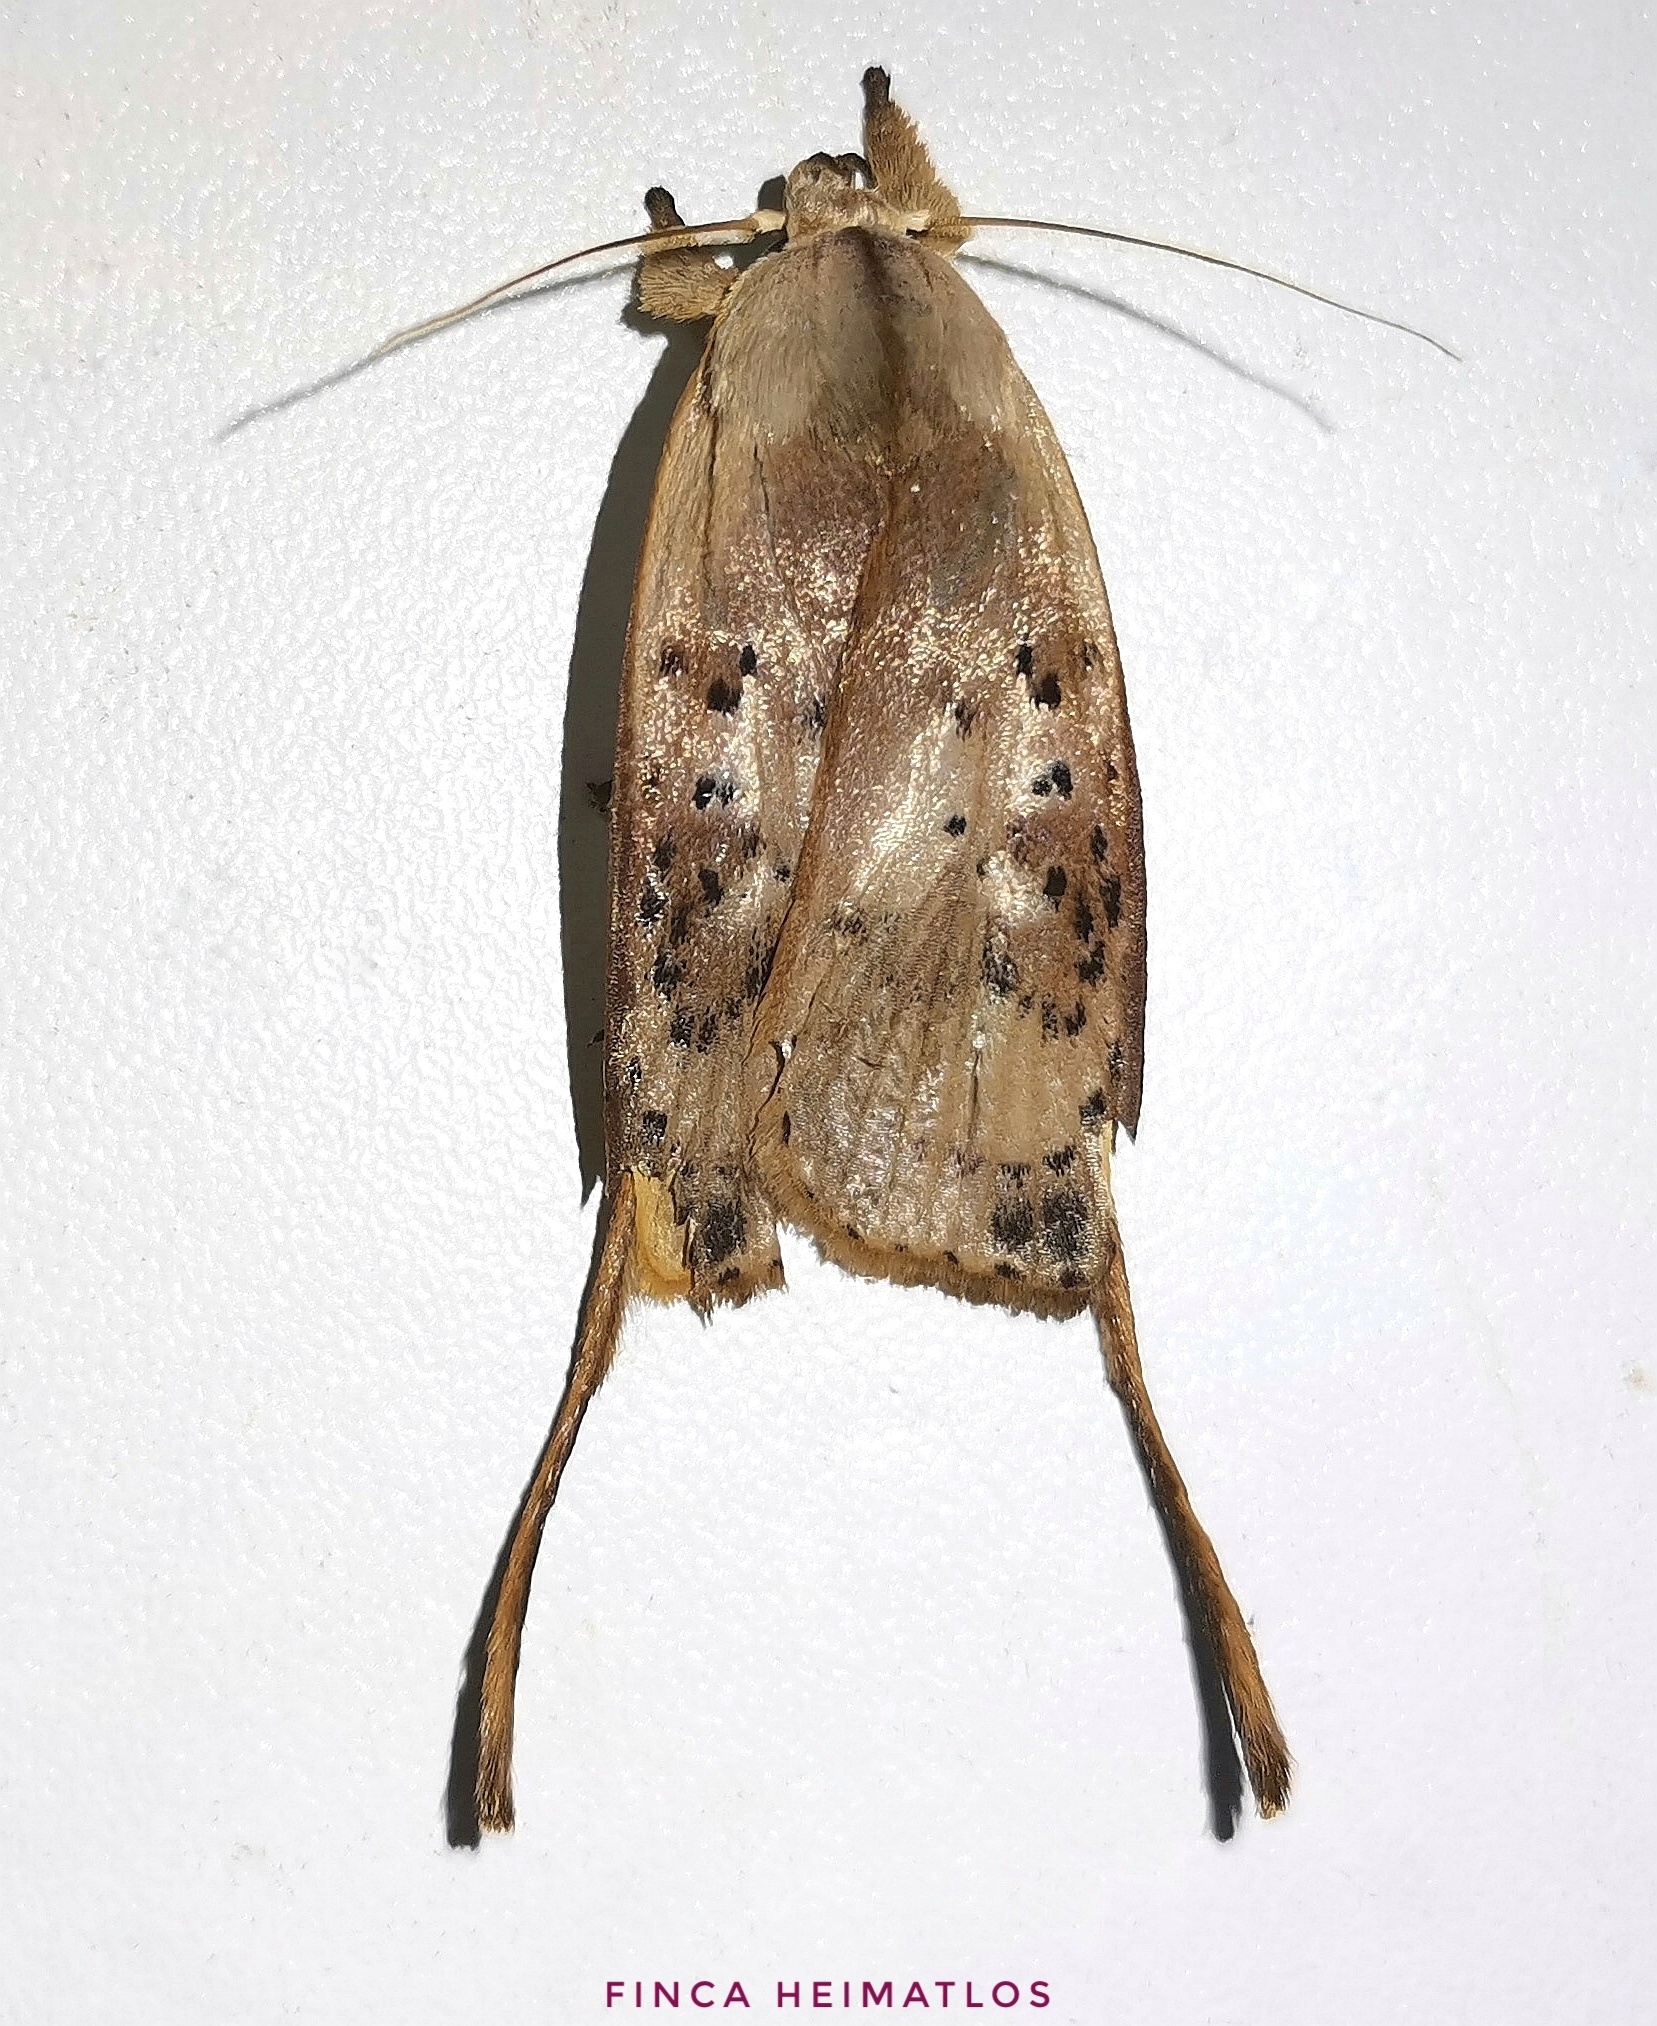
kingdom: Animalia
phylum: Arthropoda
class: Insecta
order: Lepidoptera
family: Depressariidae
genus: Thioscelis
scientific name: Thioscelis directrix
